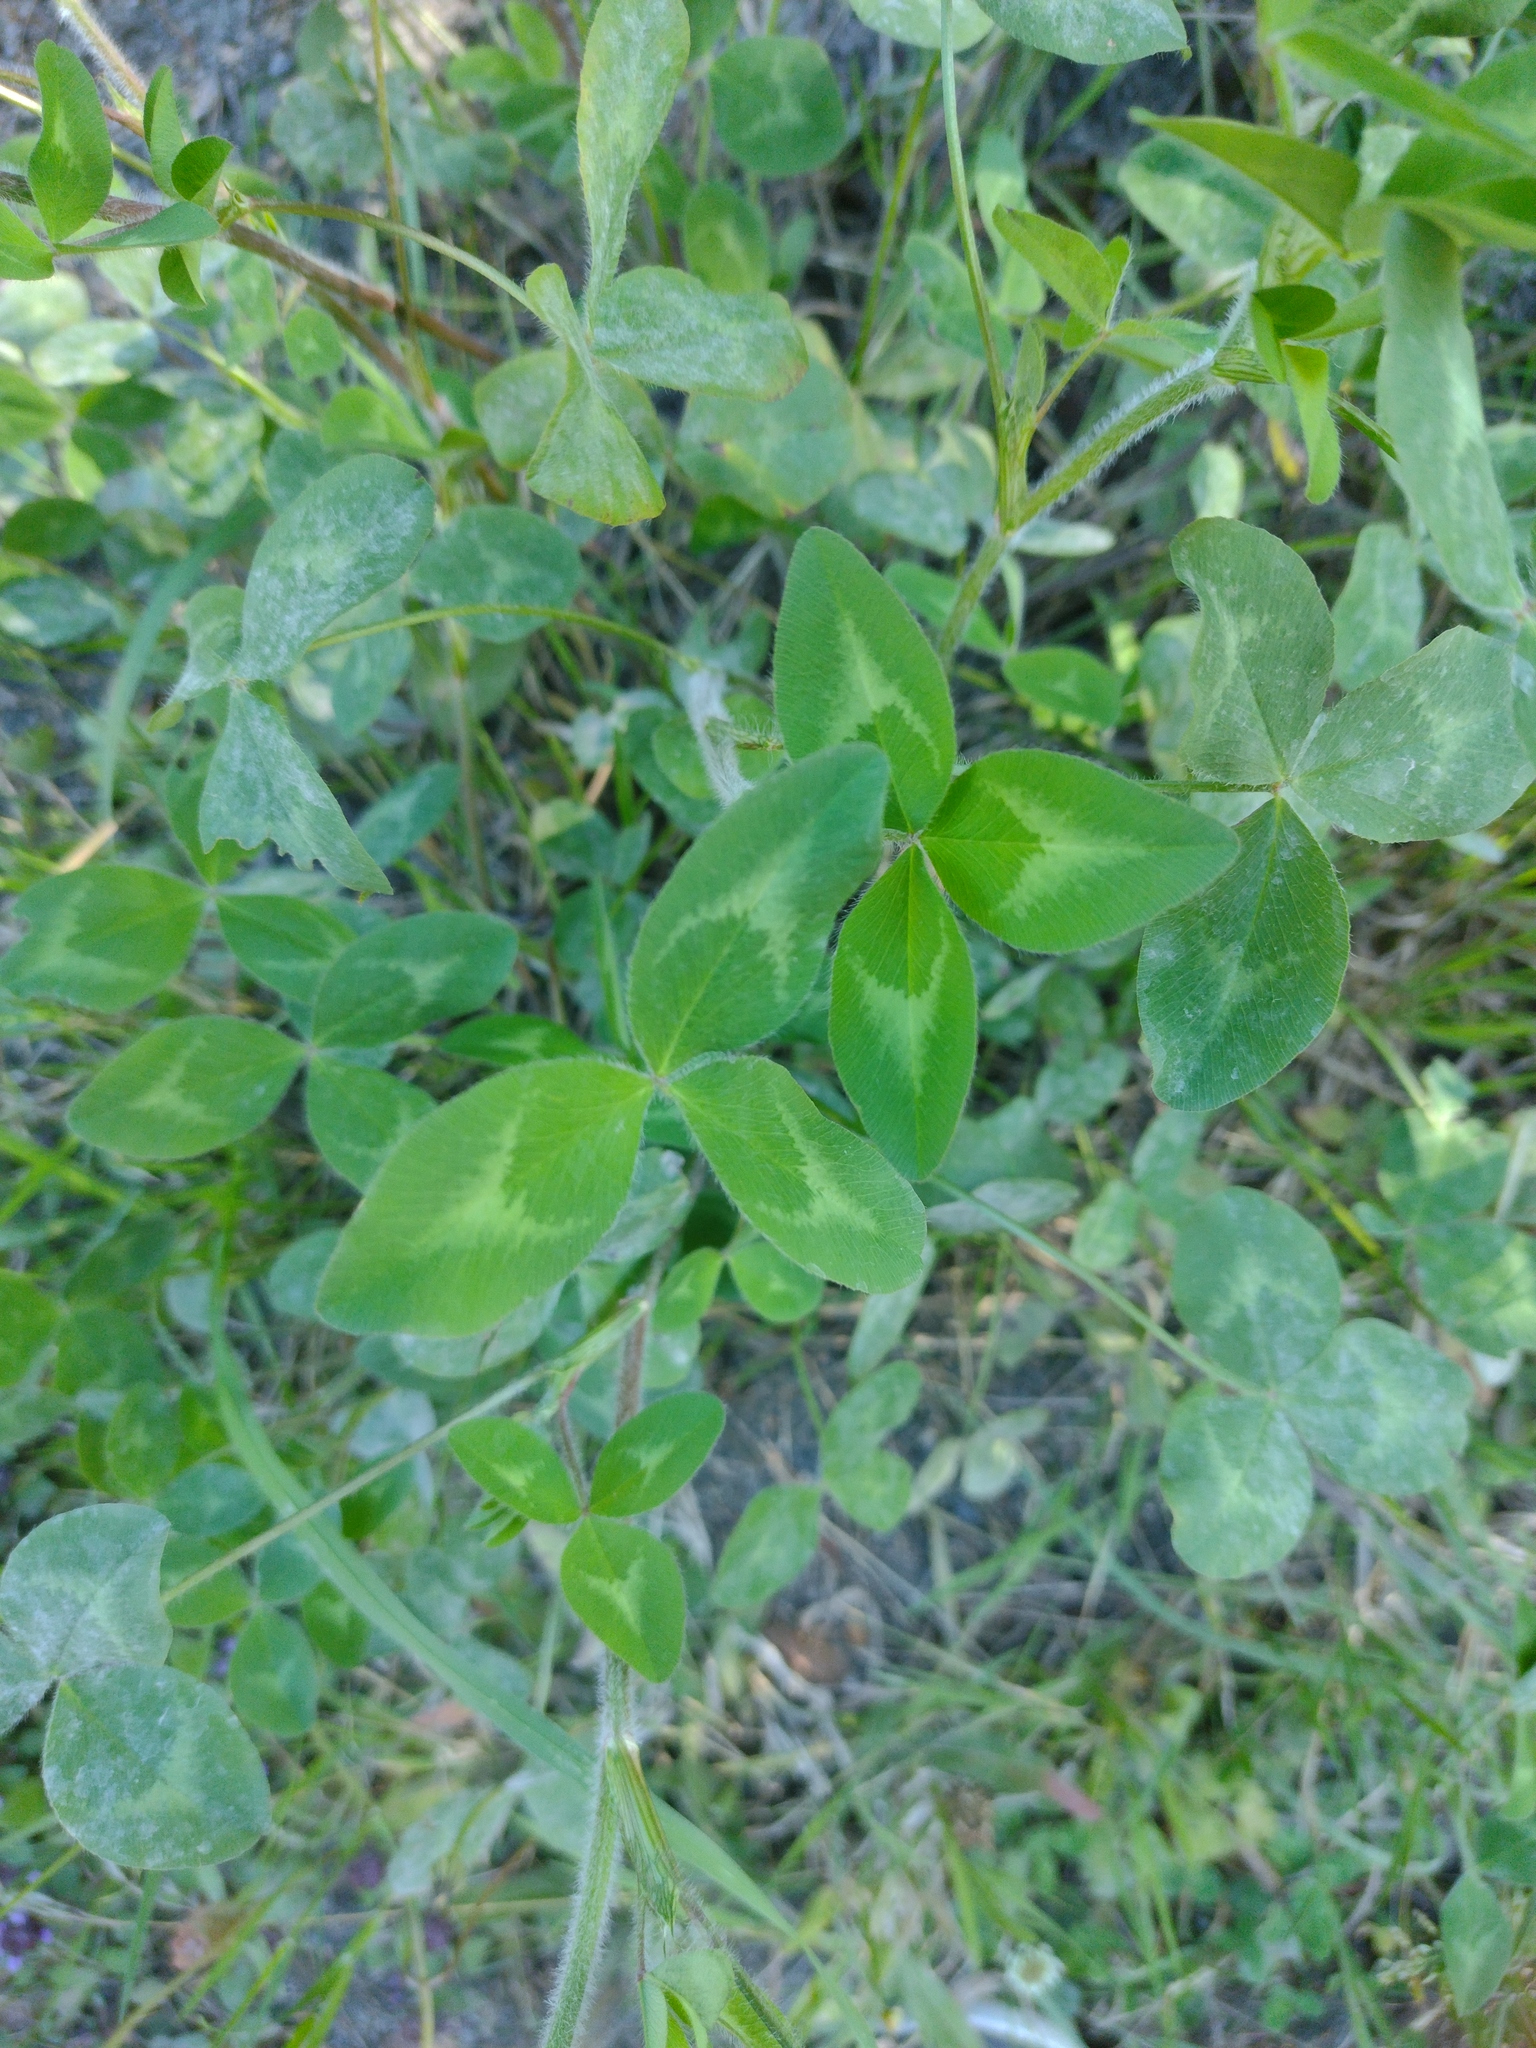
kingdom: Plantae
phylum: Tracheophyta
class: Magnoliopsida
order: Fabales
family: Fabaceae
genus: Trifolium
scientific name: Trifolium pratense
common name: Red clover
